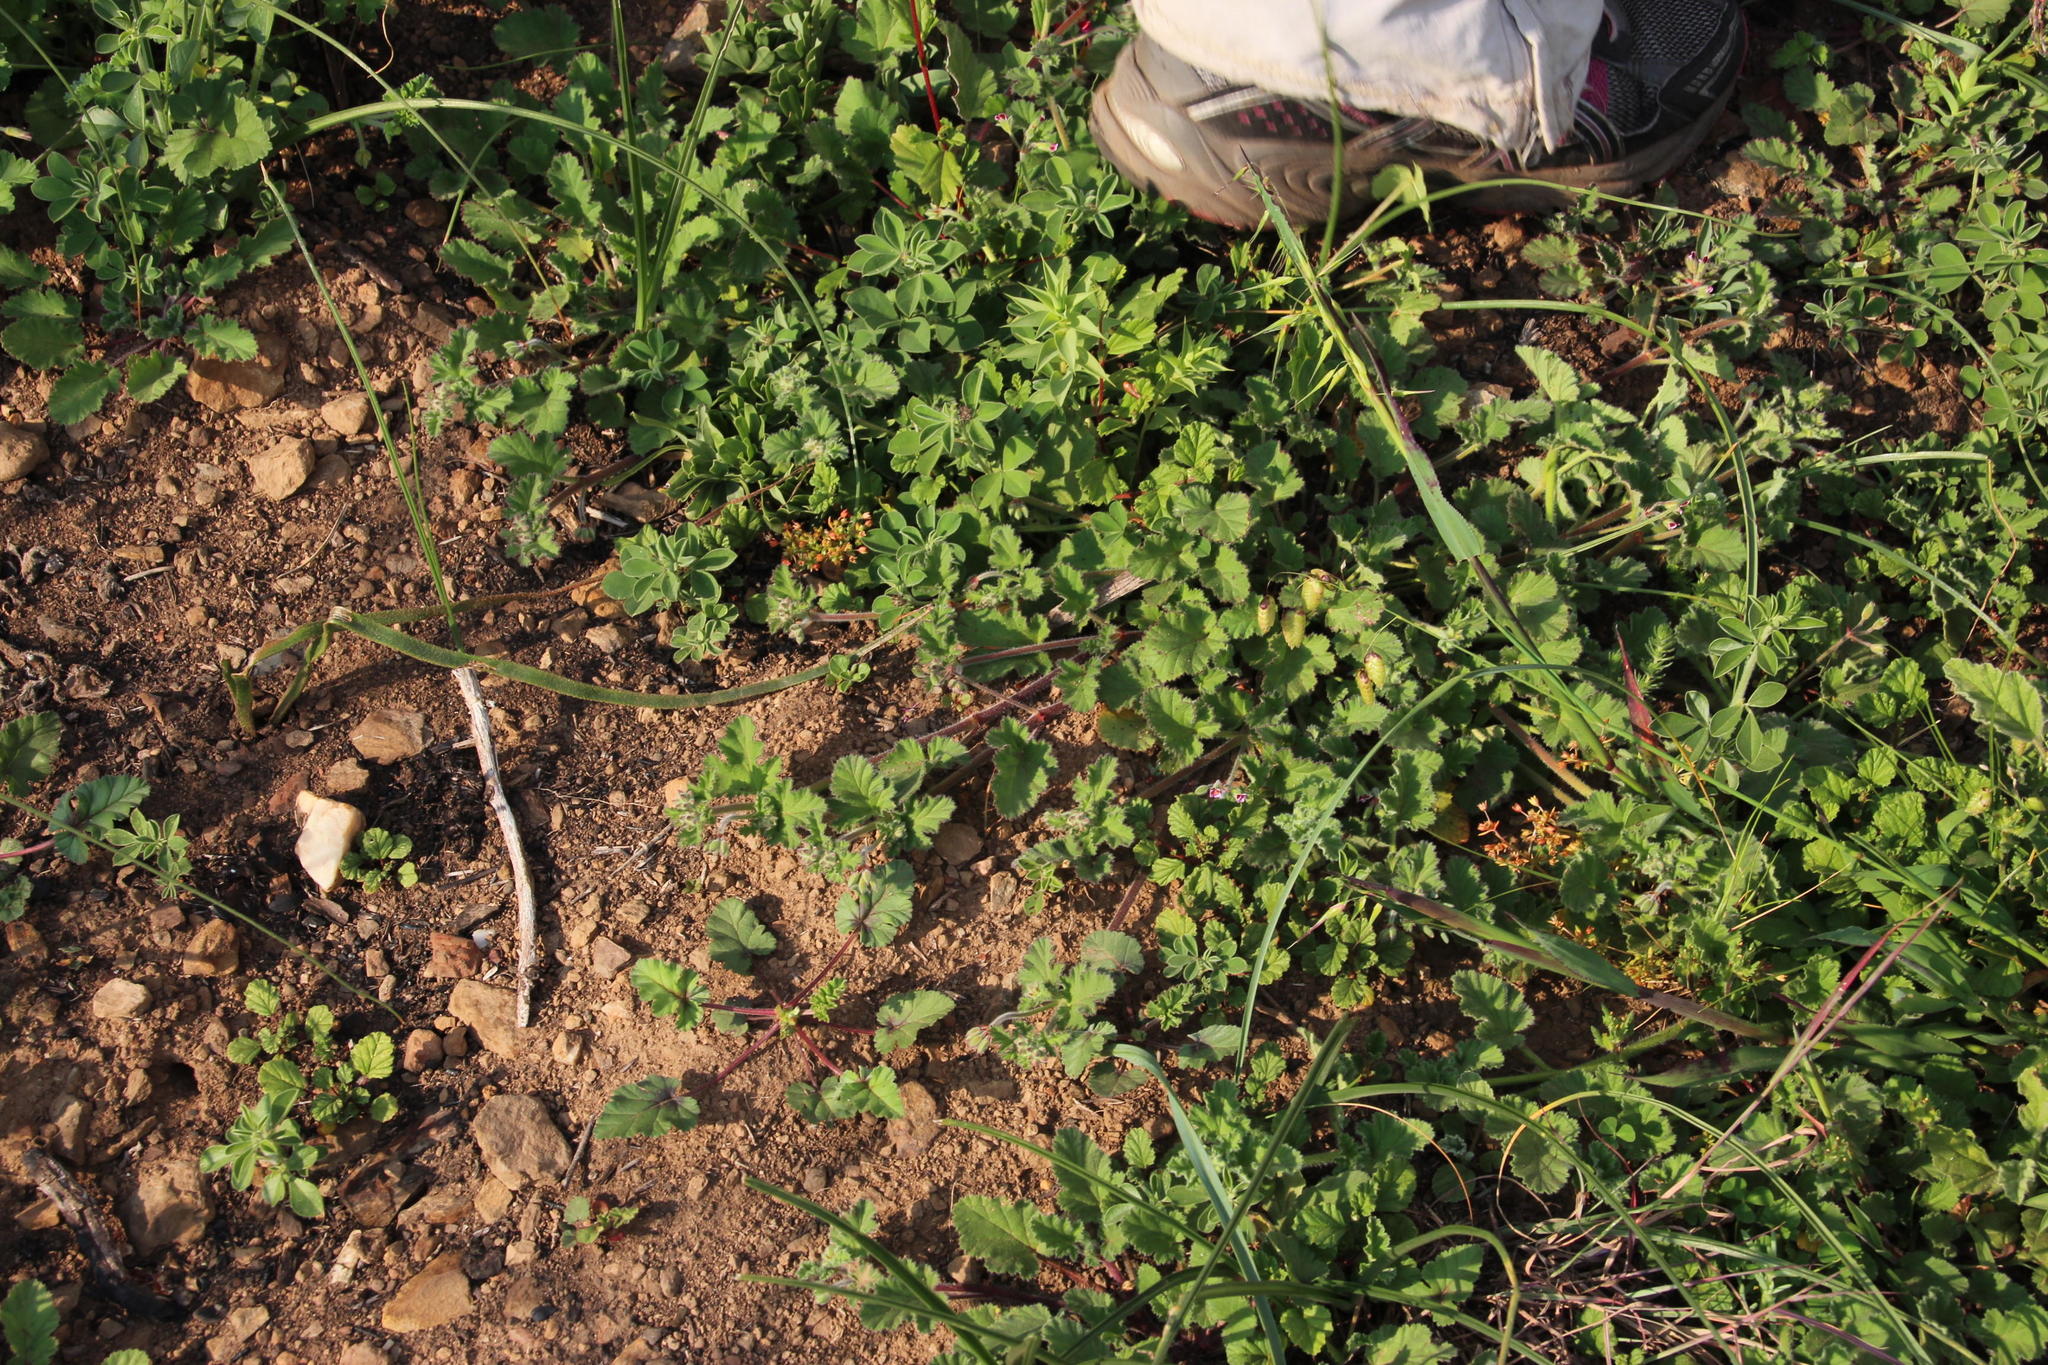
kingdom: Plantae
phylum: Tracheophyta
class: Magnoliopsida
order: Geraniales
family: Geraniaceae
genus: Pelargonium
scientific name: Pelargonium althaeoides
